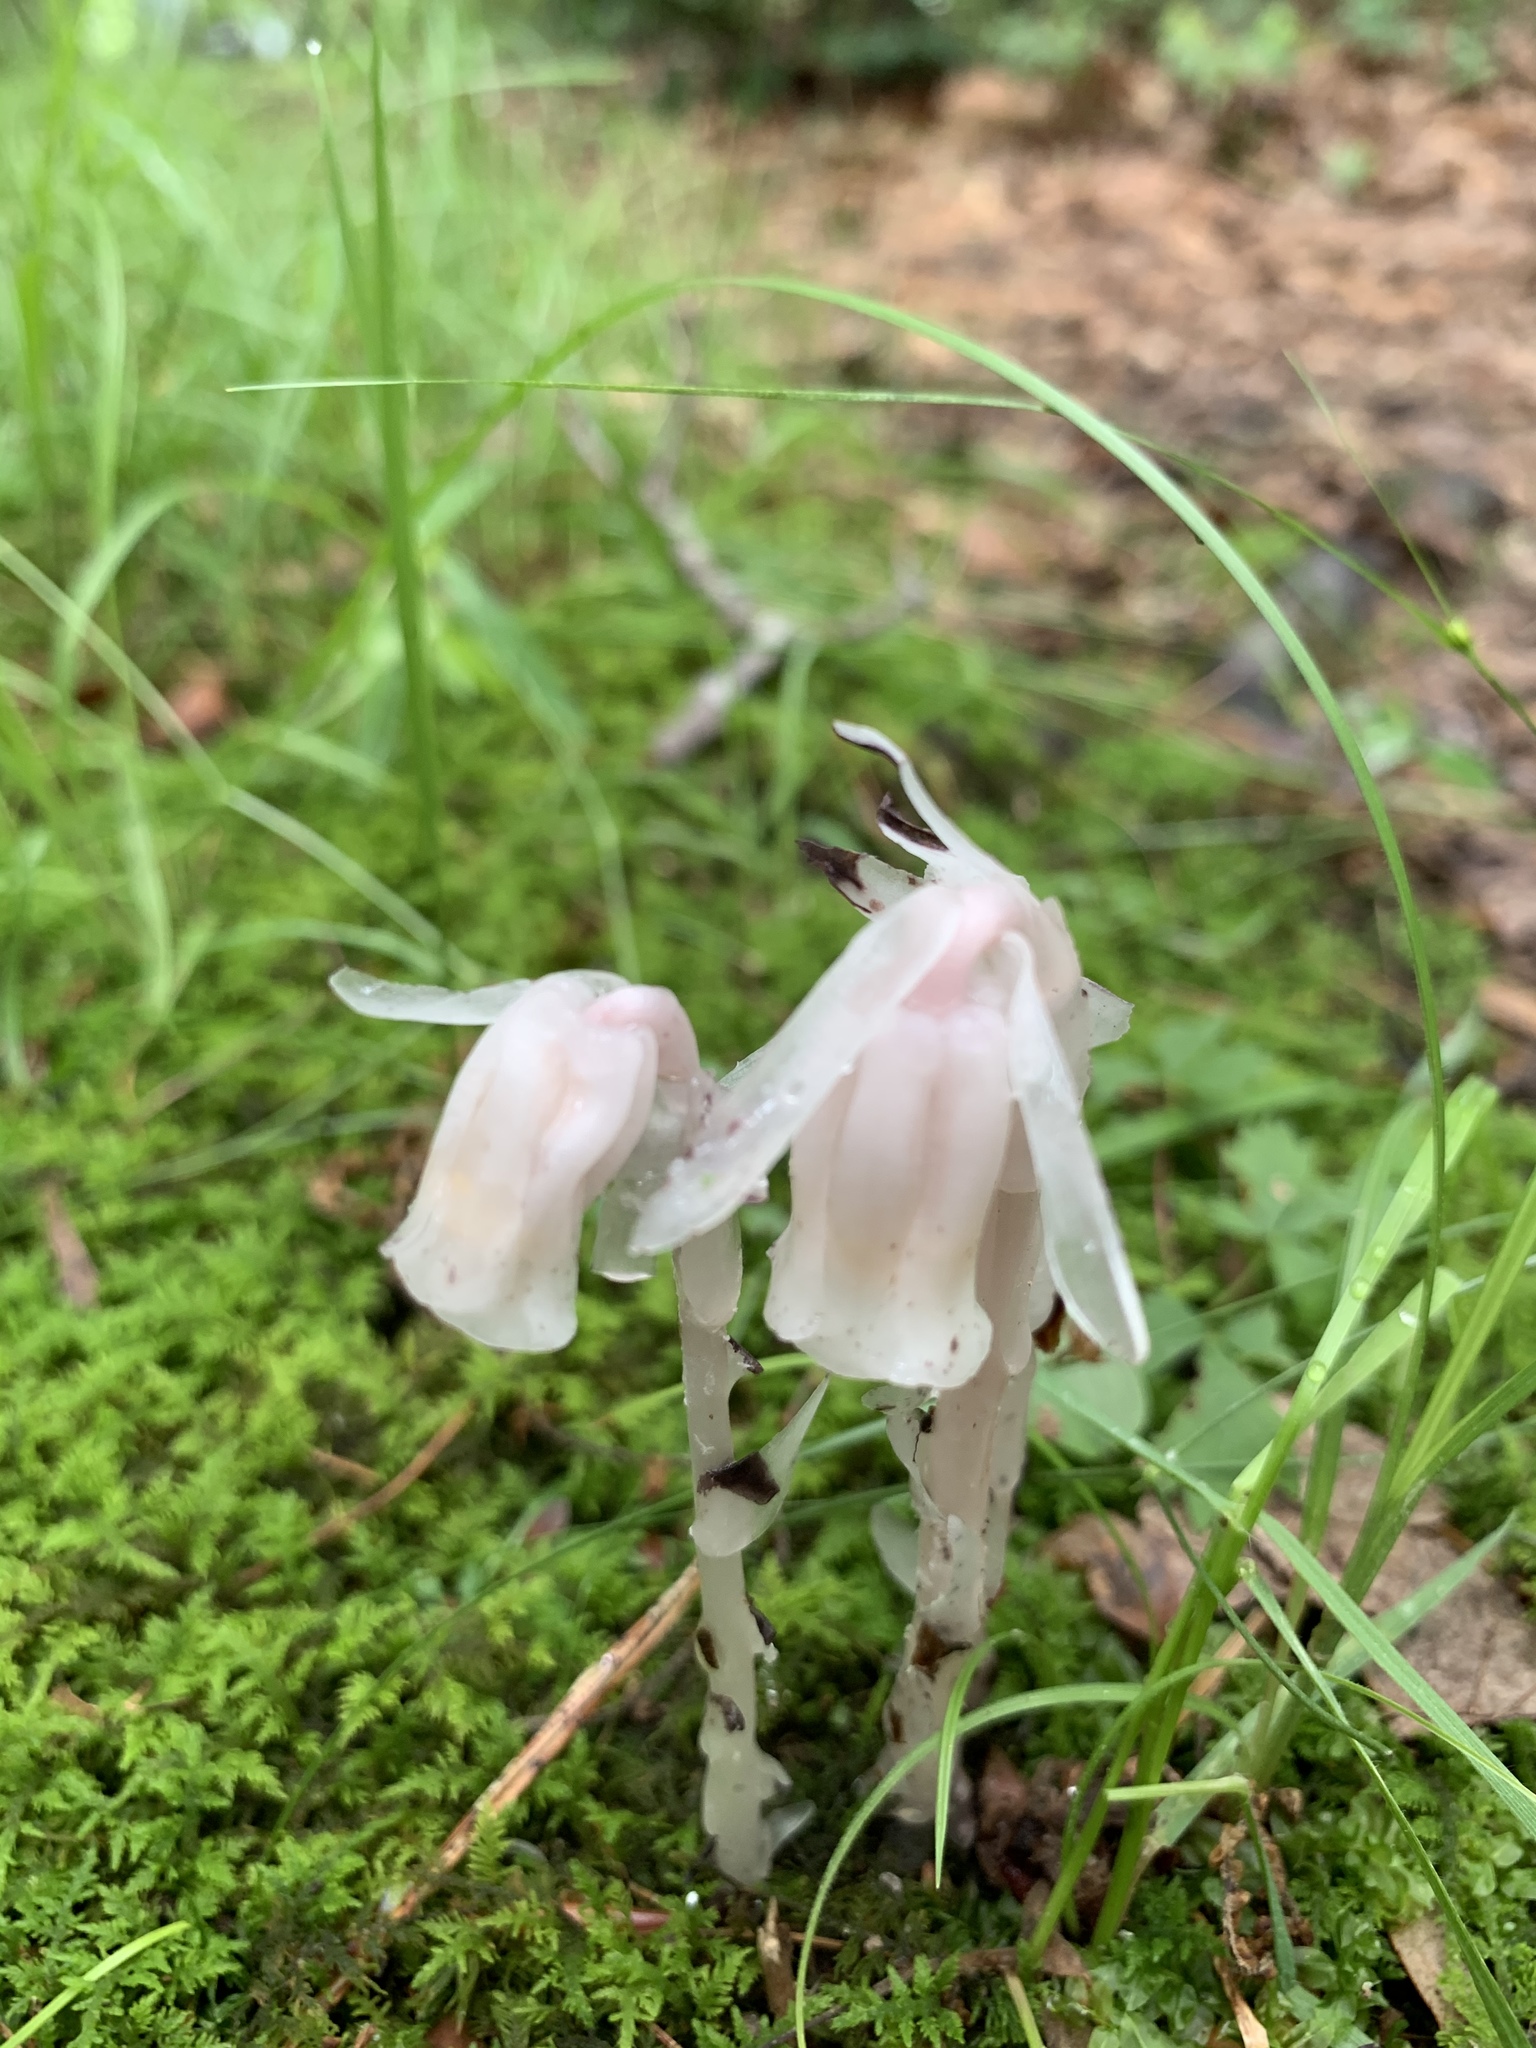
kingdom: Plantae
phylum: Tracheophyta
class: Magnoliopsida
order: Ericales
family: Ericaceae
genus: Monotropa
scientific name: Monotropa uniflora
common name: Convulsion root
